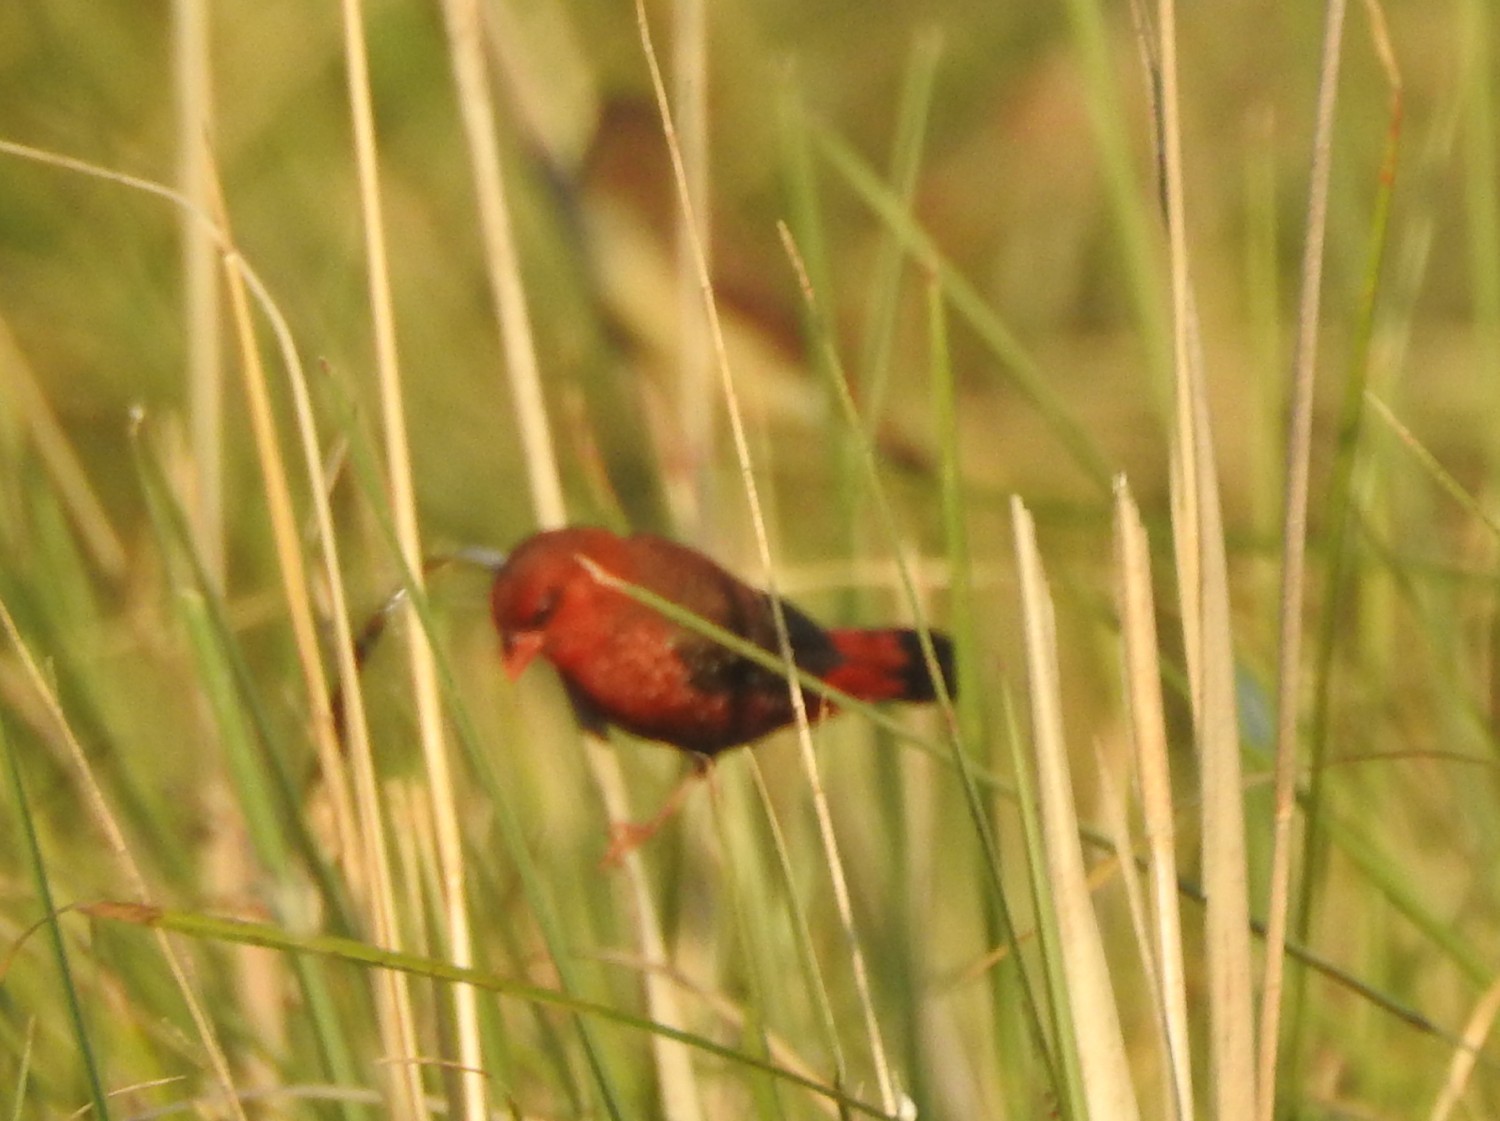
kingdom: Animalia
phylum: Chordata
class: Aves
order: Passeriformes
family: Estrildidae
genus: Amandava
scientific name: Amandava amandava
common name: Red avadavat
